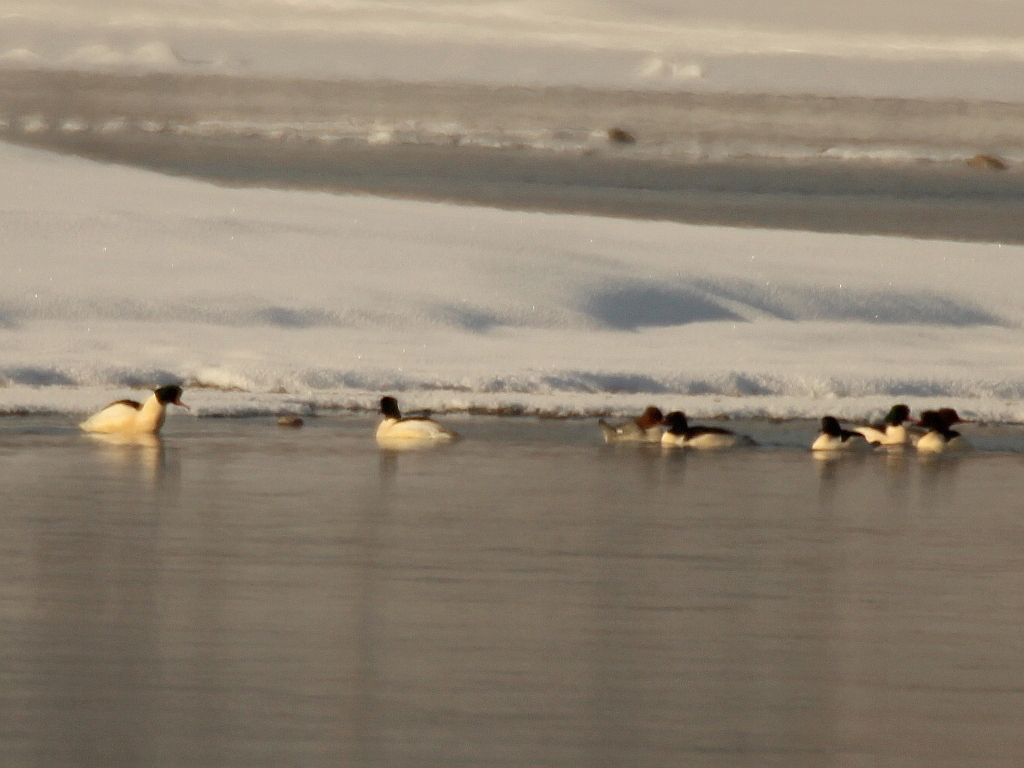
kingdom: Animalia
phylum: Chordata
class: Aves
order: Anseriformes
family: Anatidae
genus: Mergus
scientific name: Mergus merganser
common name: Common merganser
